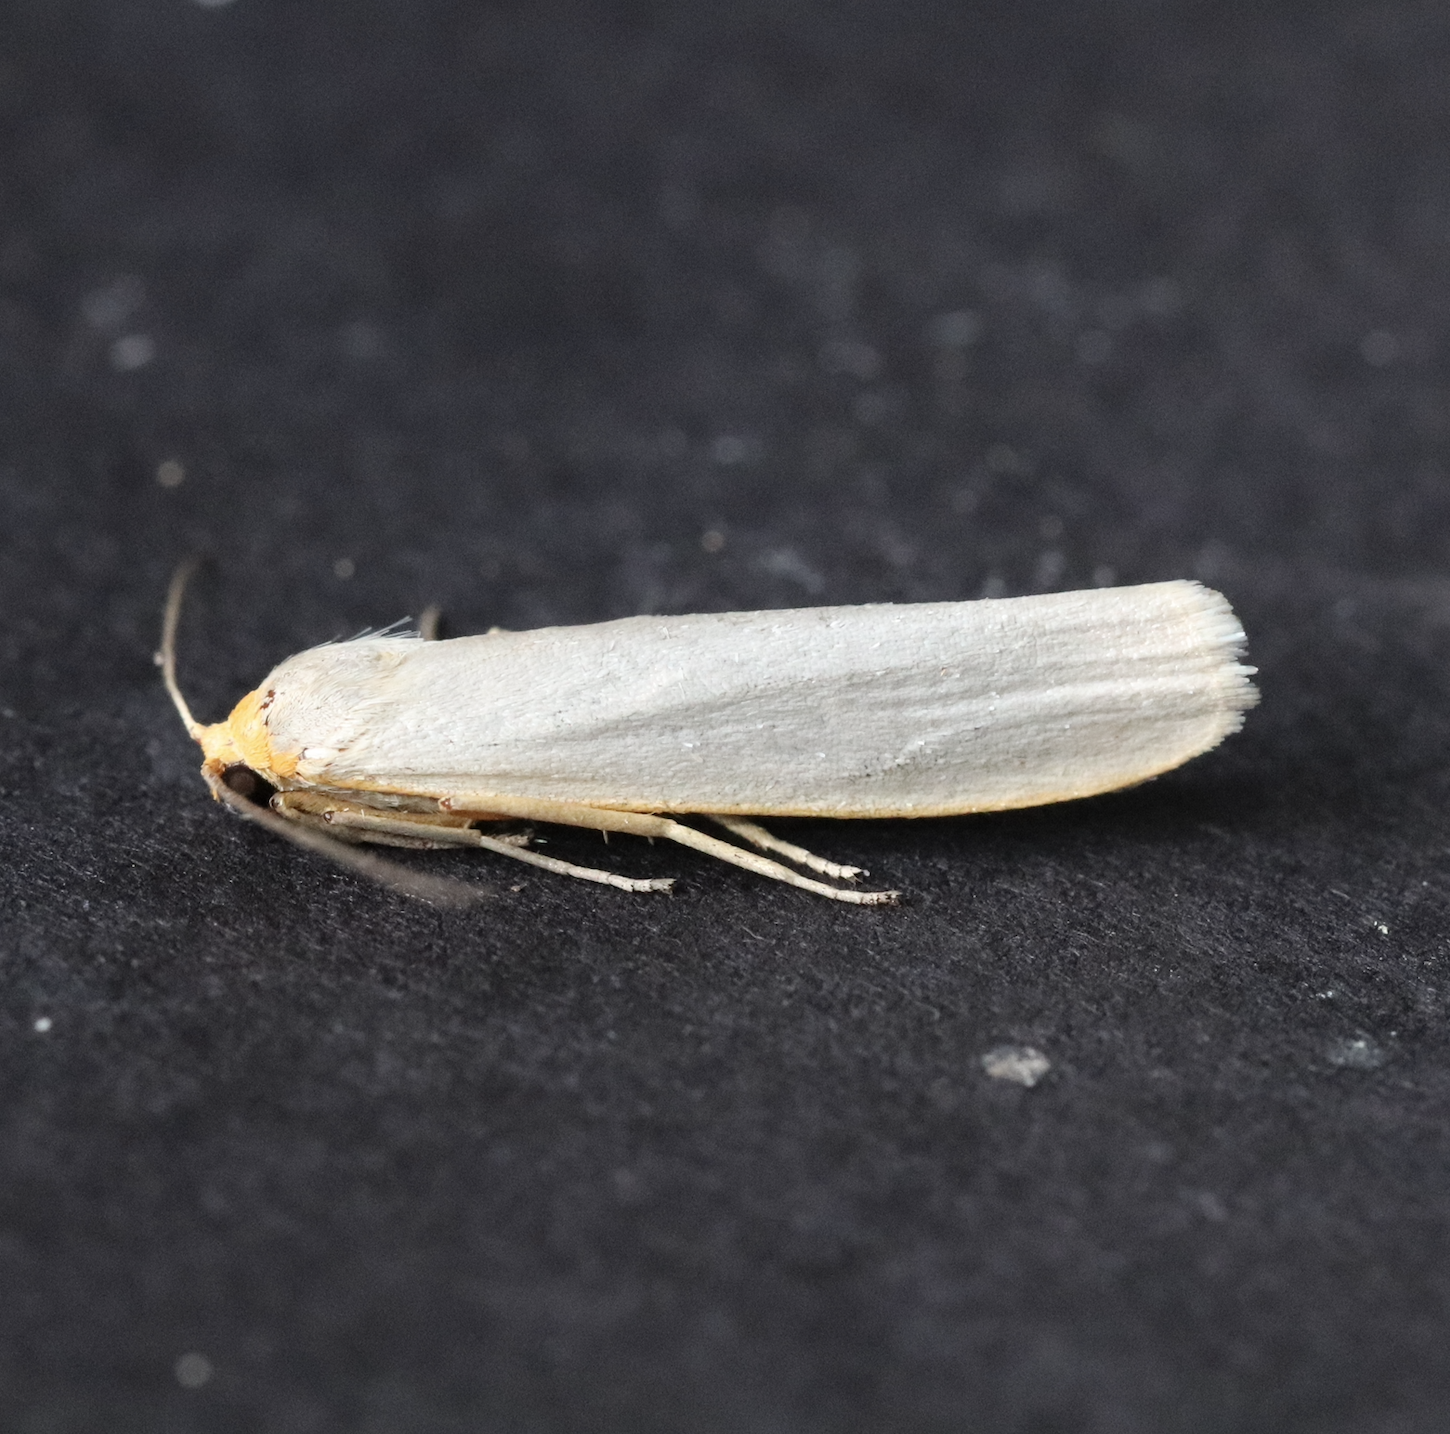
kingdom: Animalia
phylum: Arthropoda
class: Insecta
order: Lepidoptera
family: Erebidae
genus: Eilema
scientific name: Eilema caniola
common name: Hoary footman
